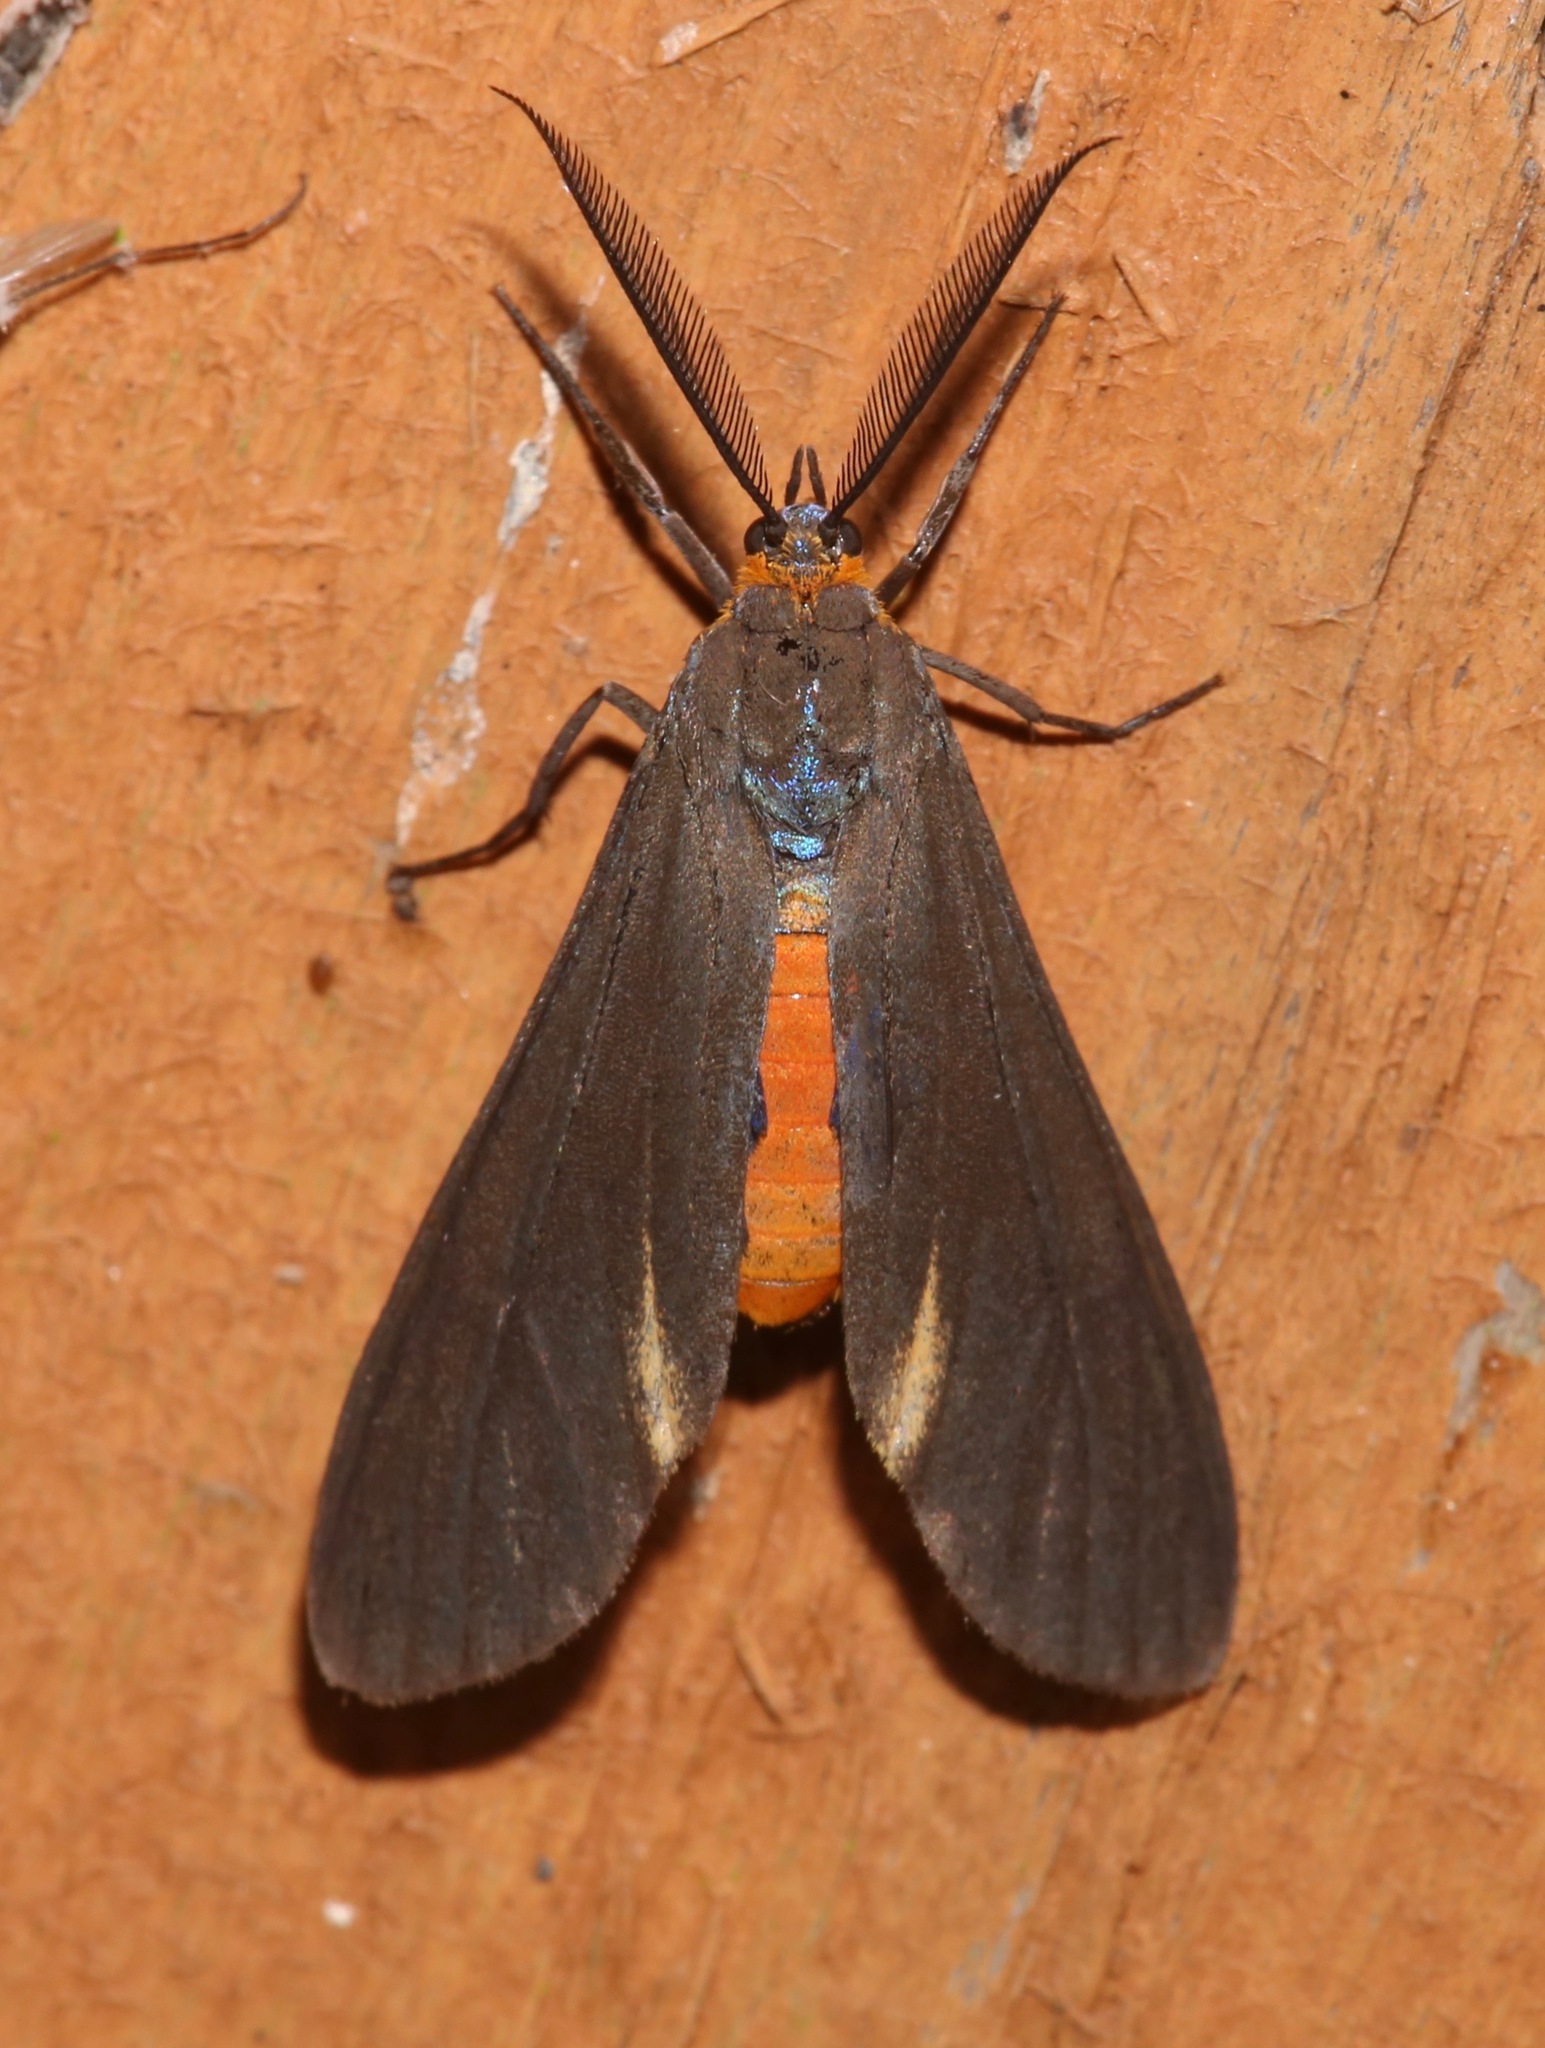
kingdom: Animalia
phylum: Arthropoda
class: Insecta
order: Lepidoptera
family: Erebidae
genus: Dahana
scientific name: Dahana atripennis
